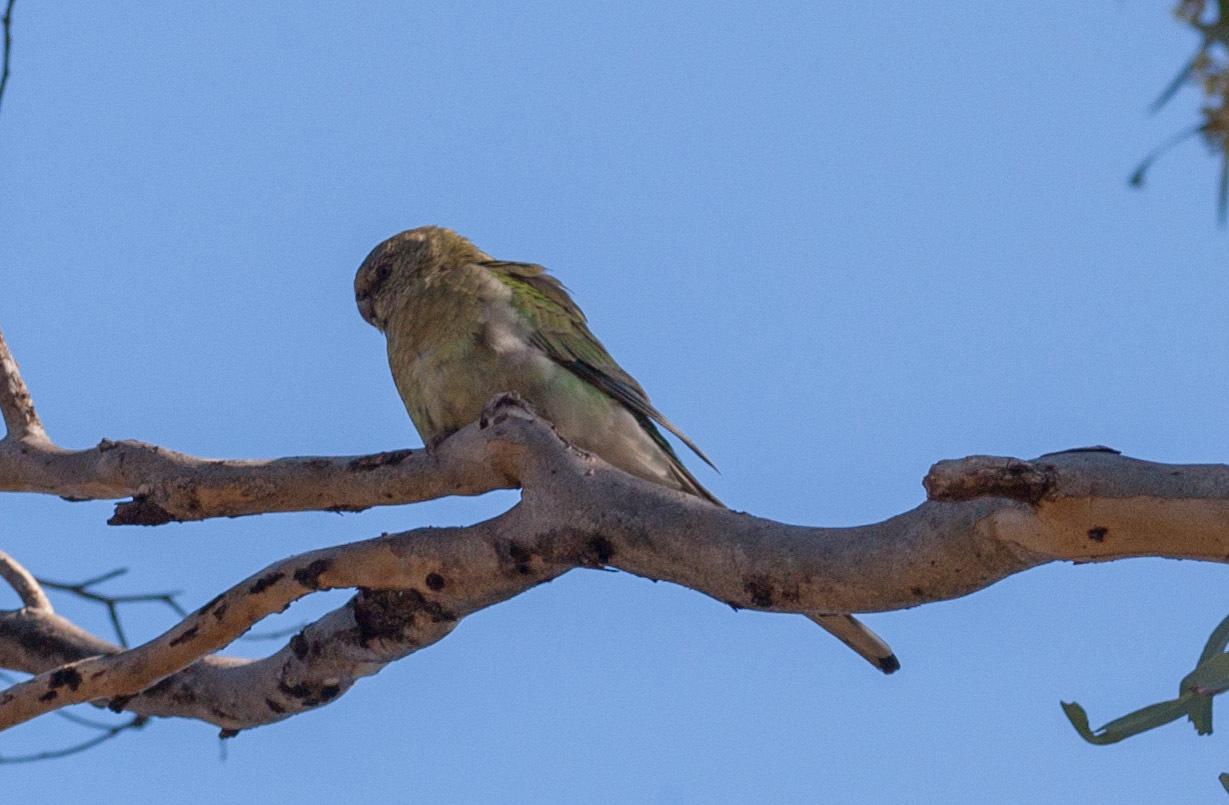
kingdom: Animalia
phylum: Chordata
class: Aves
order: Psittaciformes
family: Psittacidae
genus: Psephotus
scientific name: Psephotus haematonotus
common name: Red-rumped parrot
